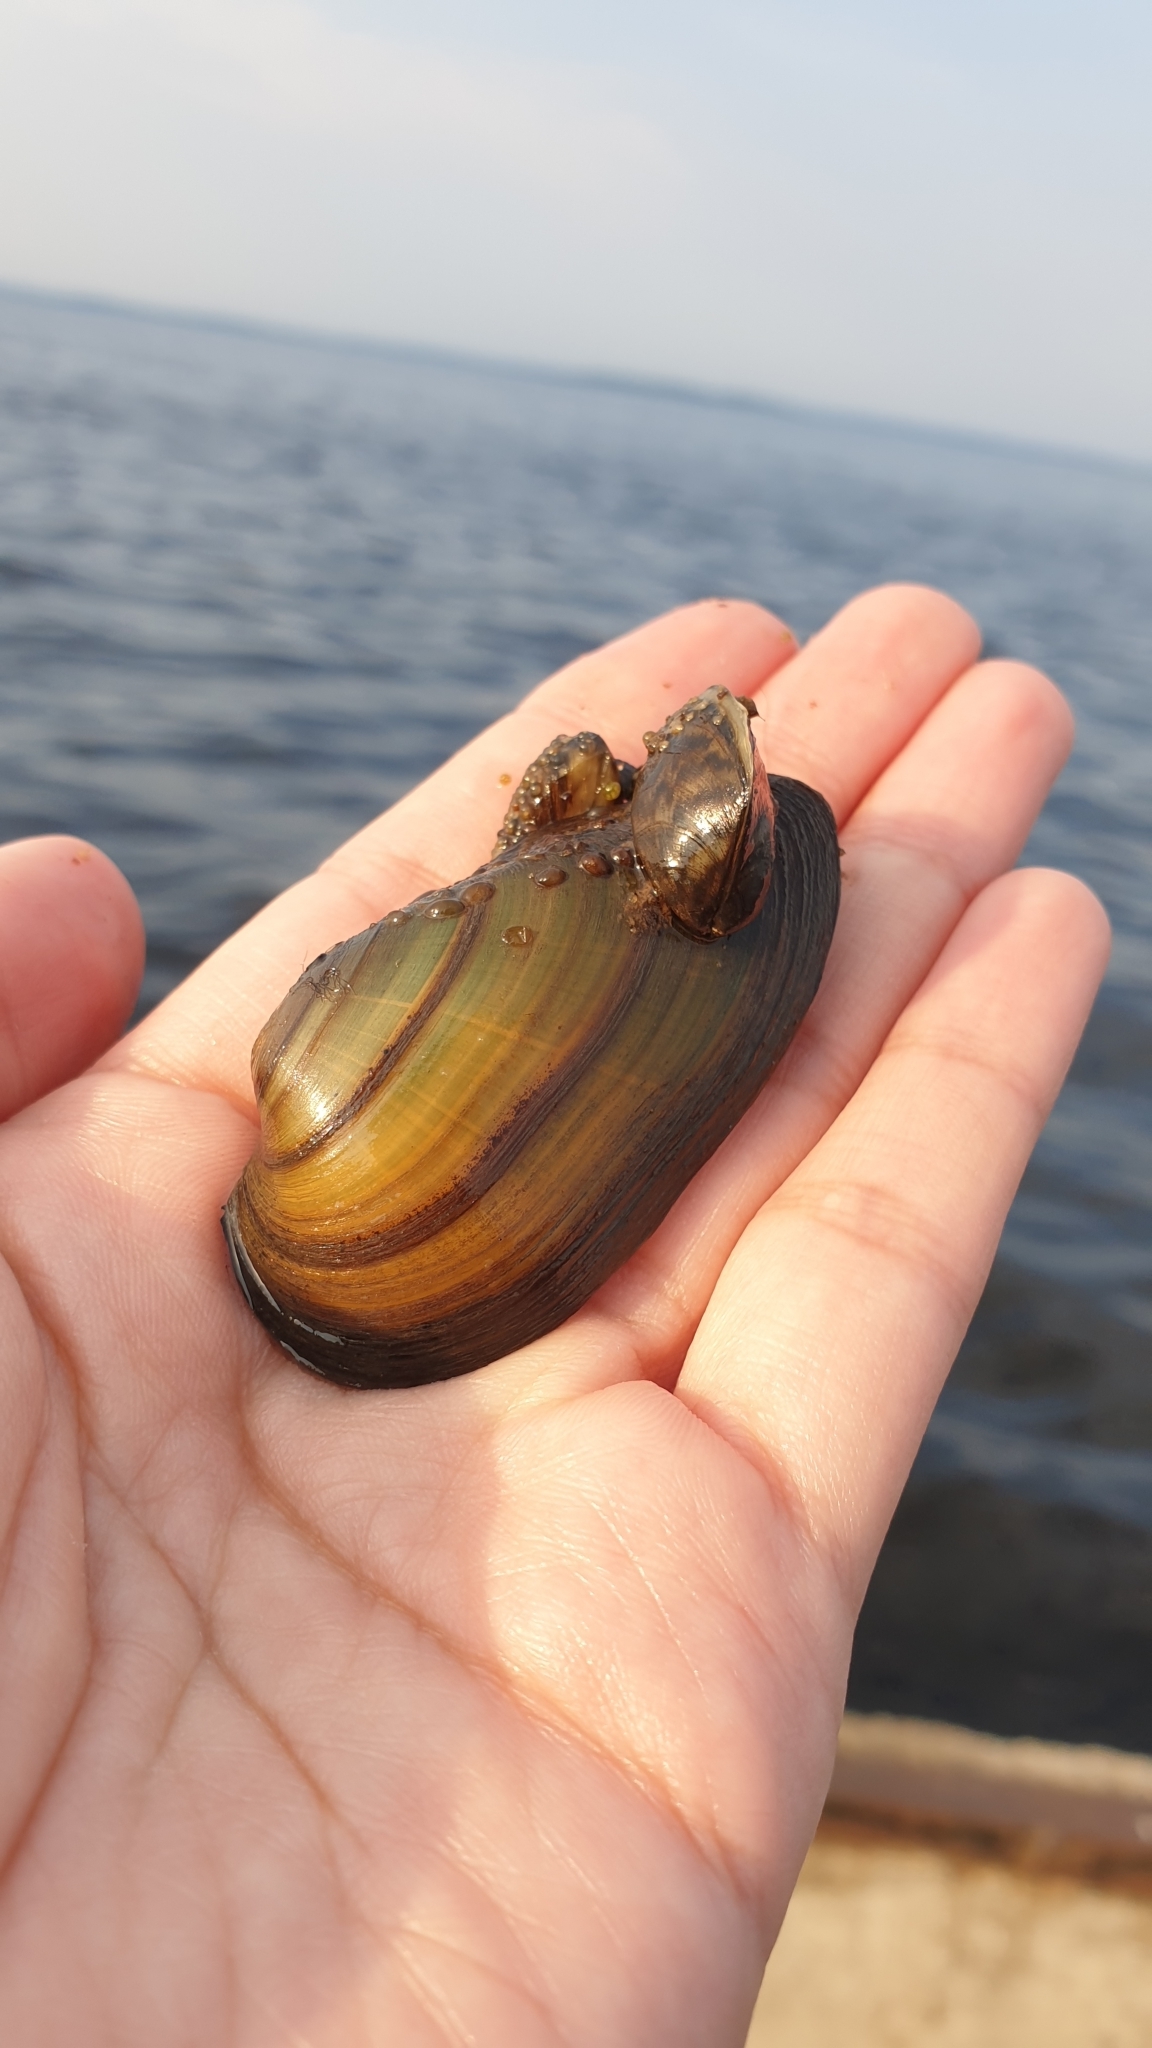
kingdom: Animalia
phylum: Mollusca
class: Bivalvia
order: Unionida
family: Unionidae
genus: Unio
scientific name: Unio tumidus
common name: Swollen river mussel
